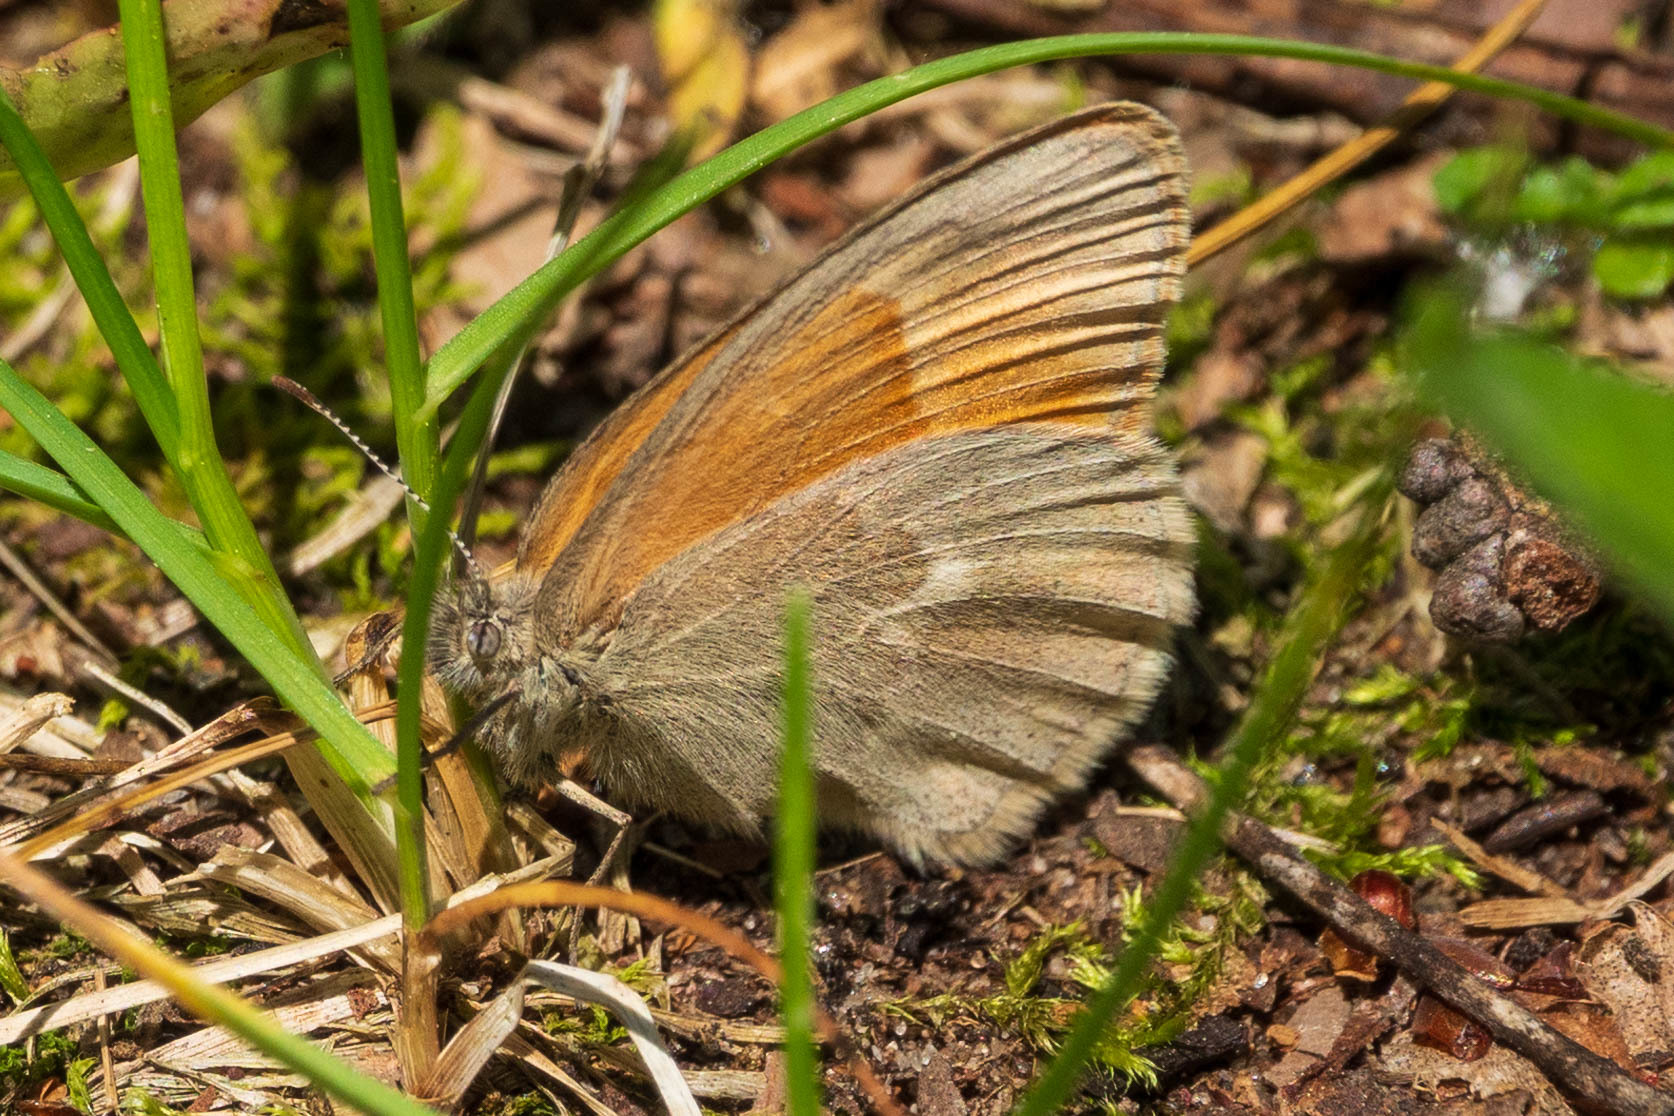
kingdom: Animalia
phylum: Arthropoda
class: Insecta
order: Lepidoptera
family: Nymphalidae
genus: Coenonympha
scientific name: Coenonympha california
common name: Common ringlet
